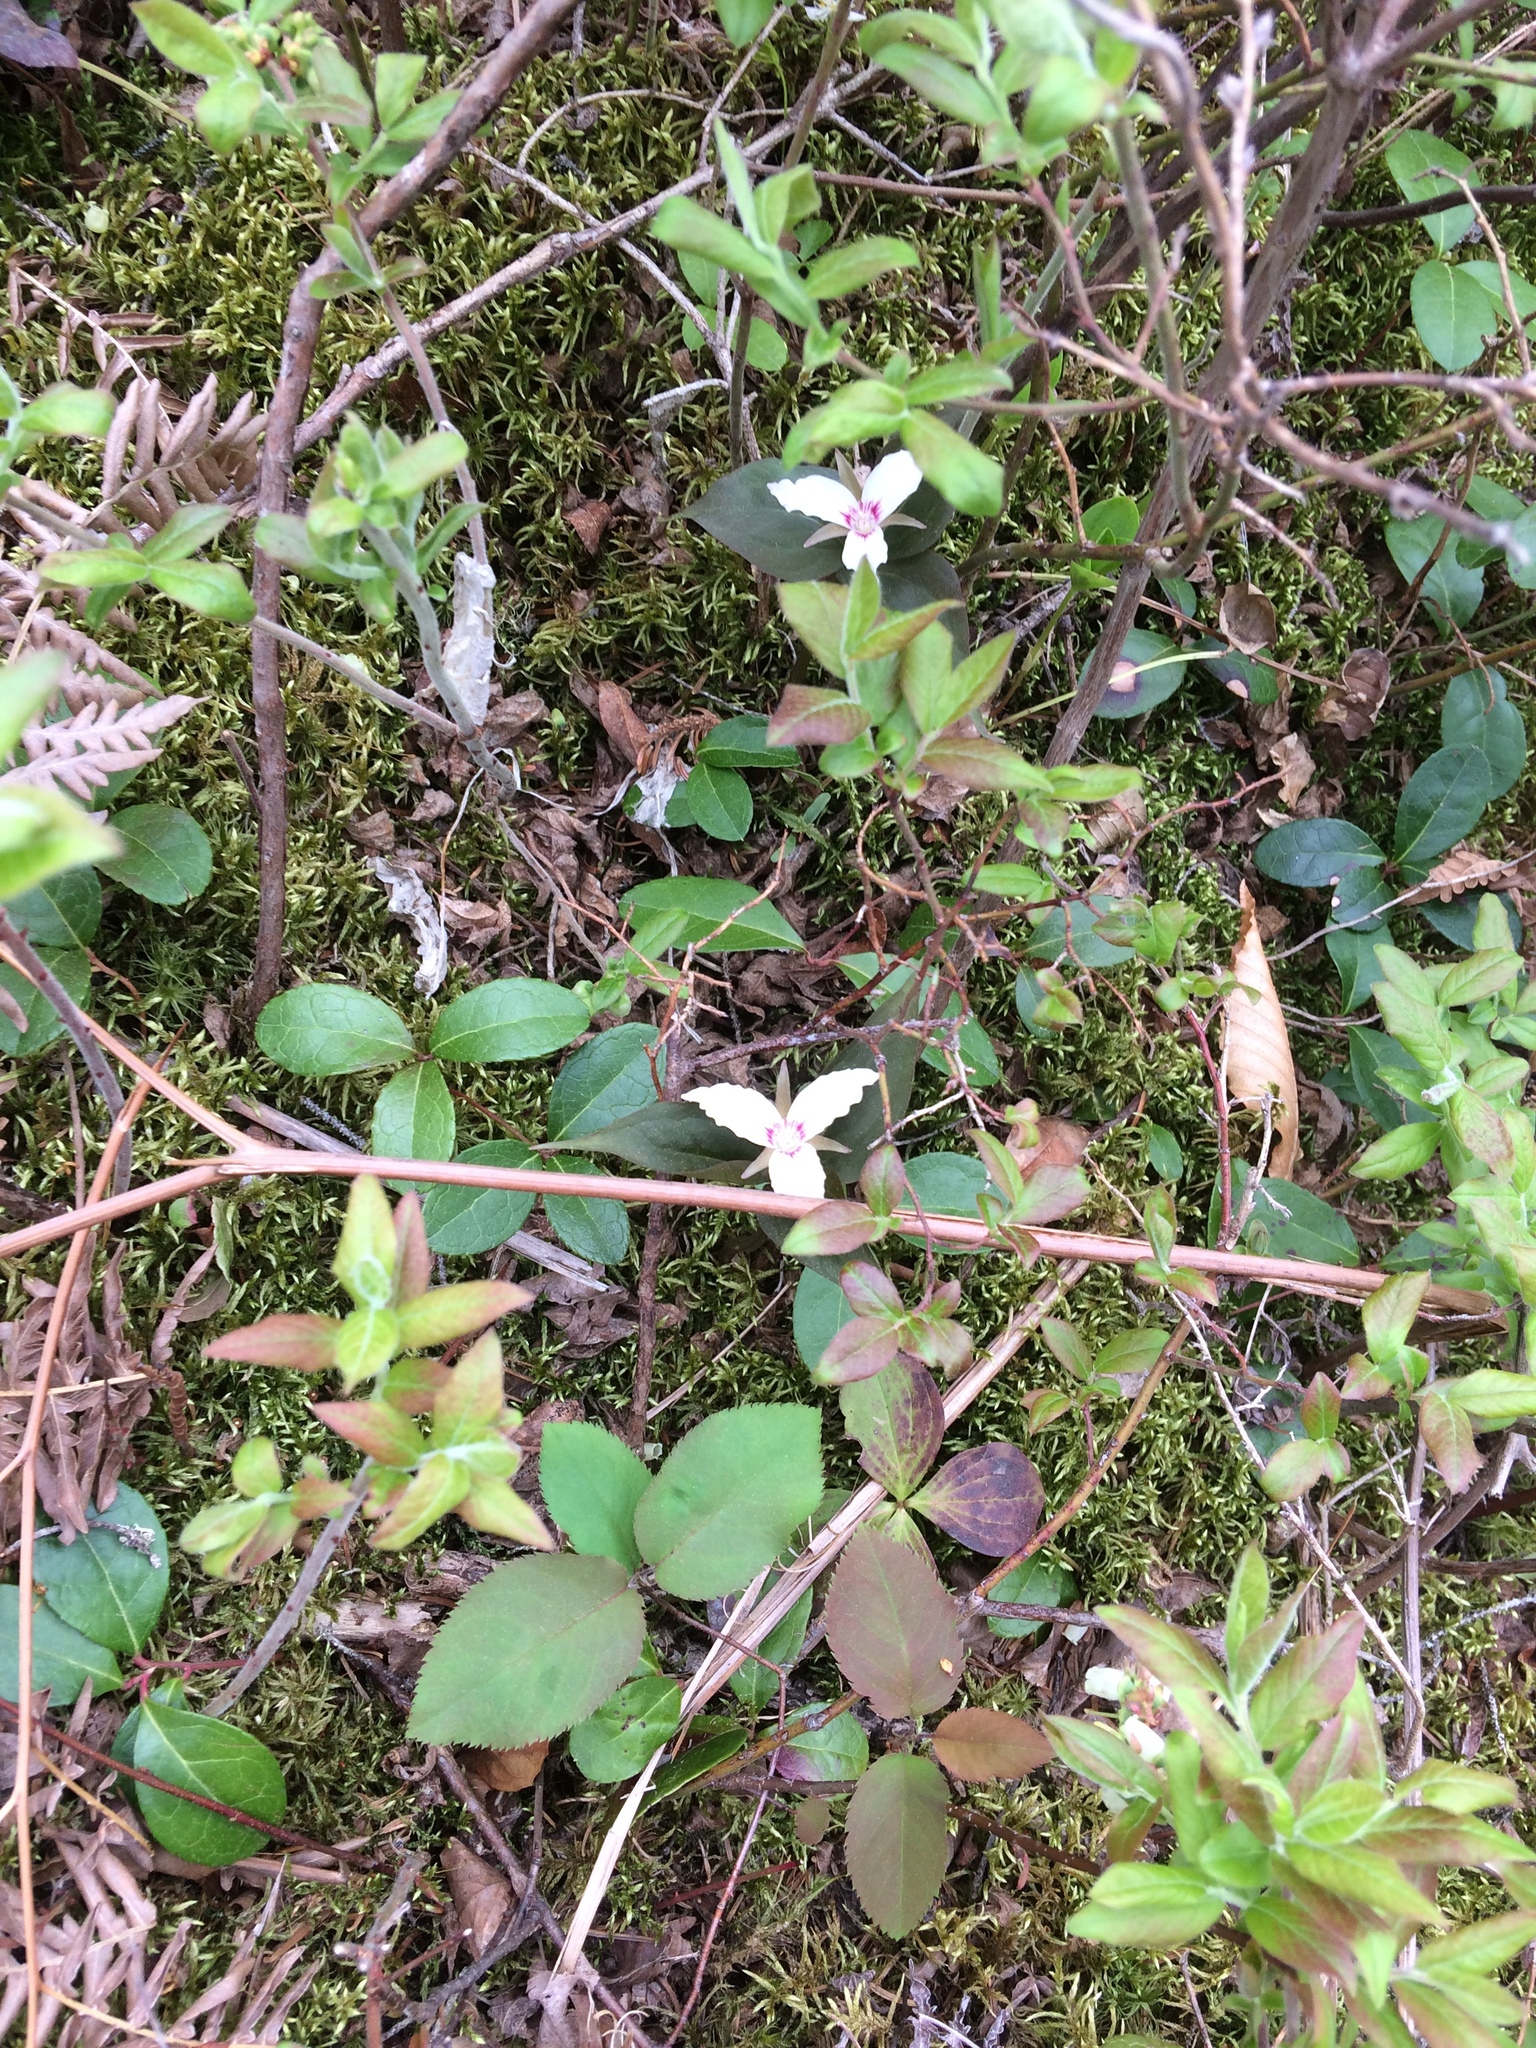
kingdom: Plantae
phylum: Tracheophyta
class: Liliopsida
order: Liliales
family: Melanthiaceae
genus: Trillium
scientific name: Trillium undulatum
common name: Paint trillium
